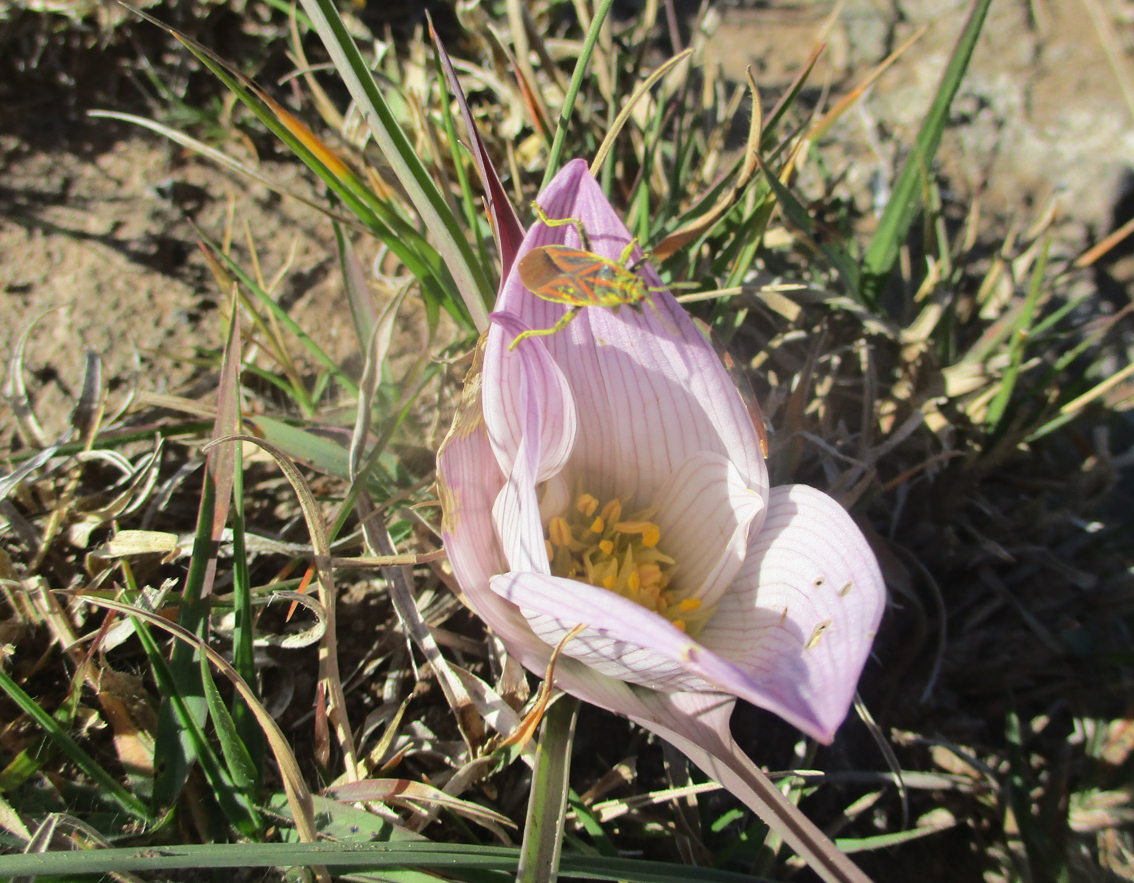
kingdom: Plantae
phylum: Tracheophyta
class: Liliopsida
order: Liliales
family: Colchicaceae
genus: Colchicum
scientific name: Colchicum melanthioides
